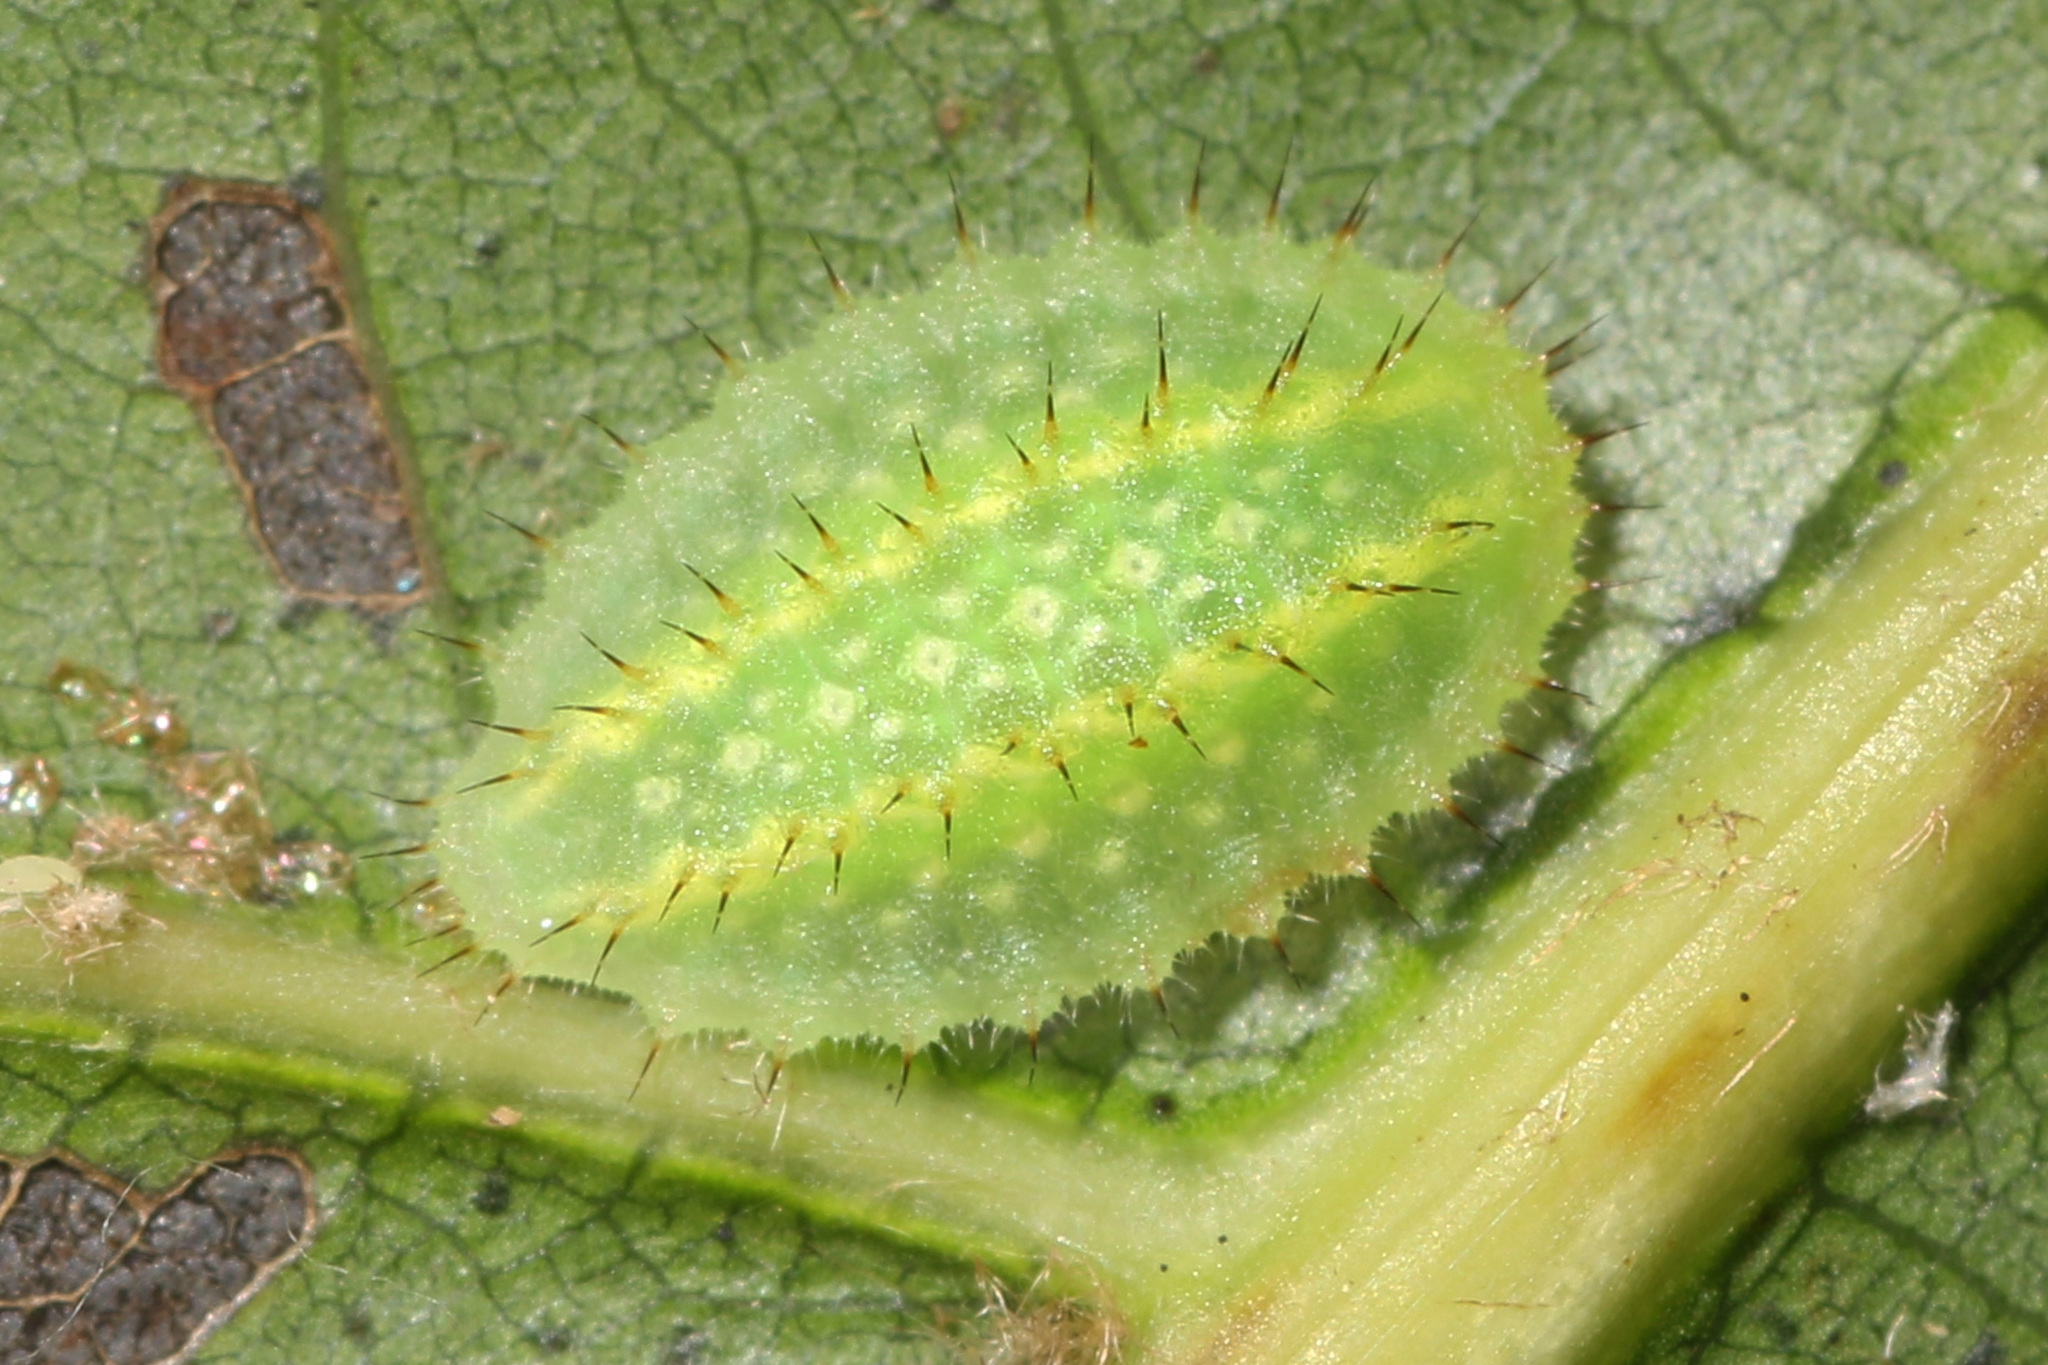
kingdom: Animalia
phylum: Arthropoda
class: Insecta
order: Lepidoptera
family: Limacodidae
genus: Lithacodes
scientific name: Lithacodes fasciola
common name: Yellow-shouldered slug moth
